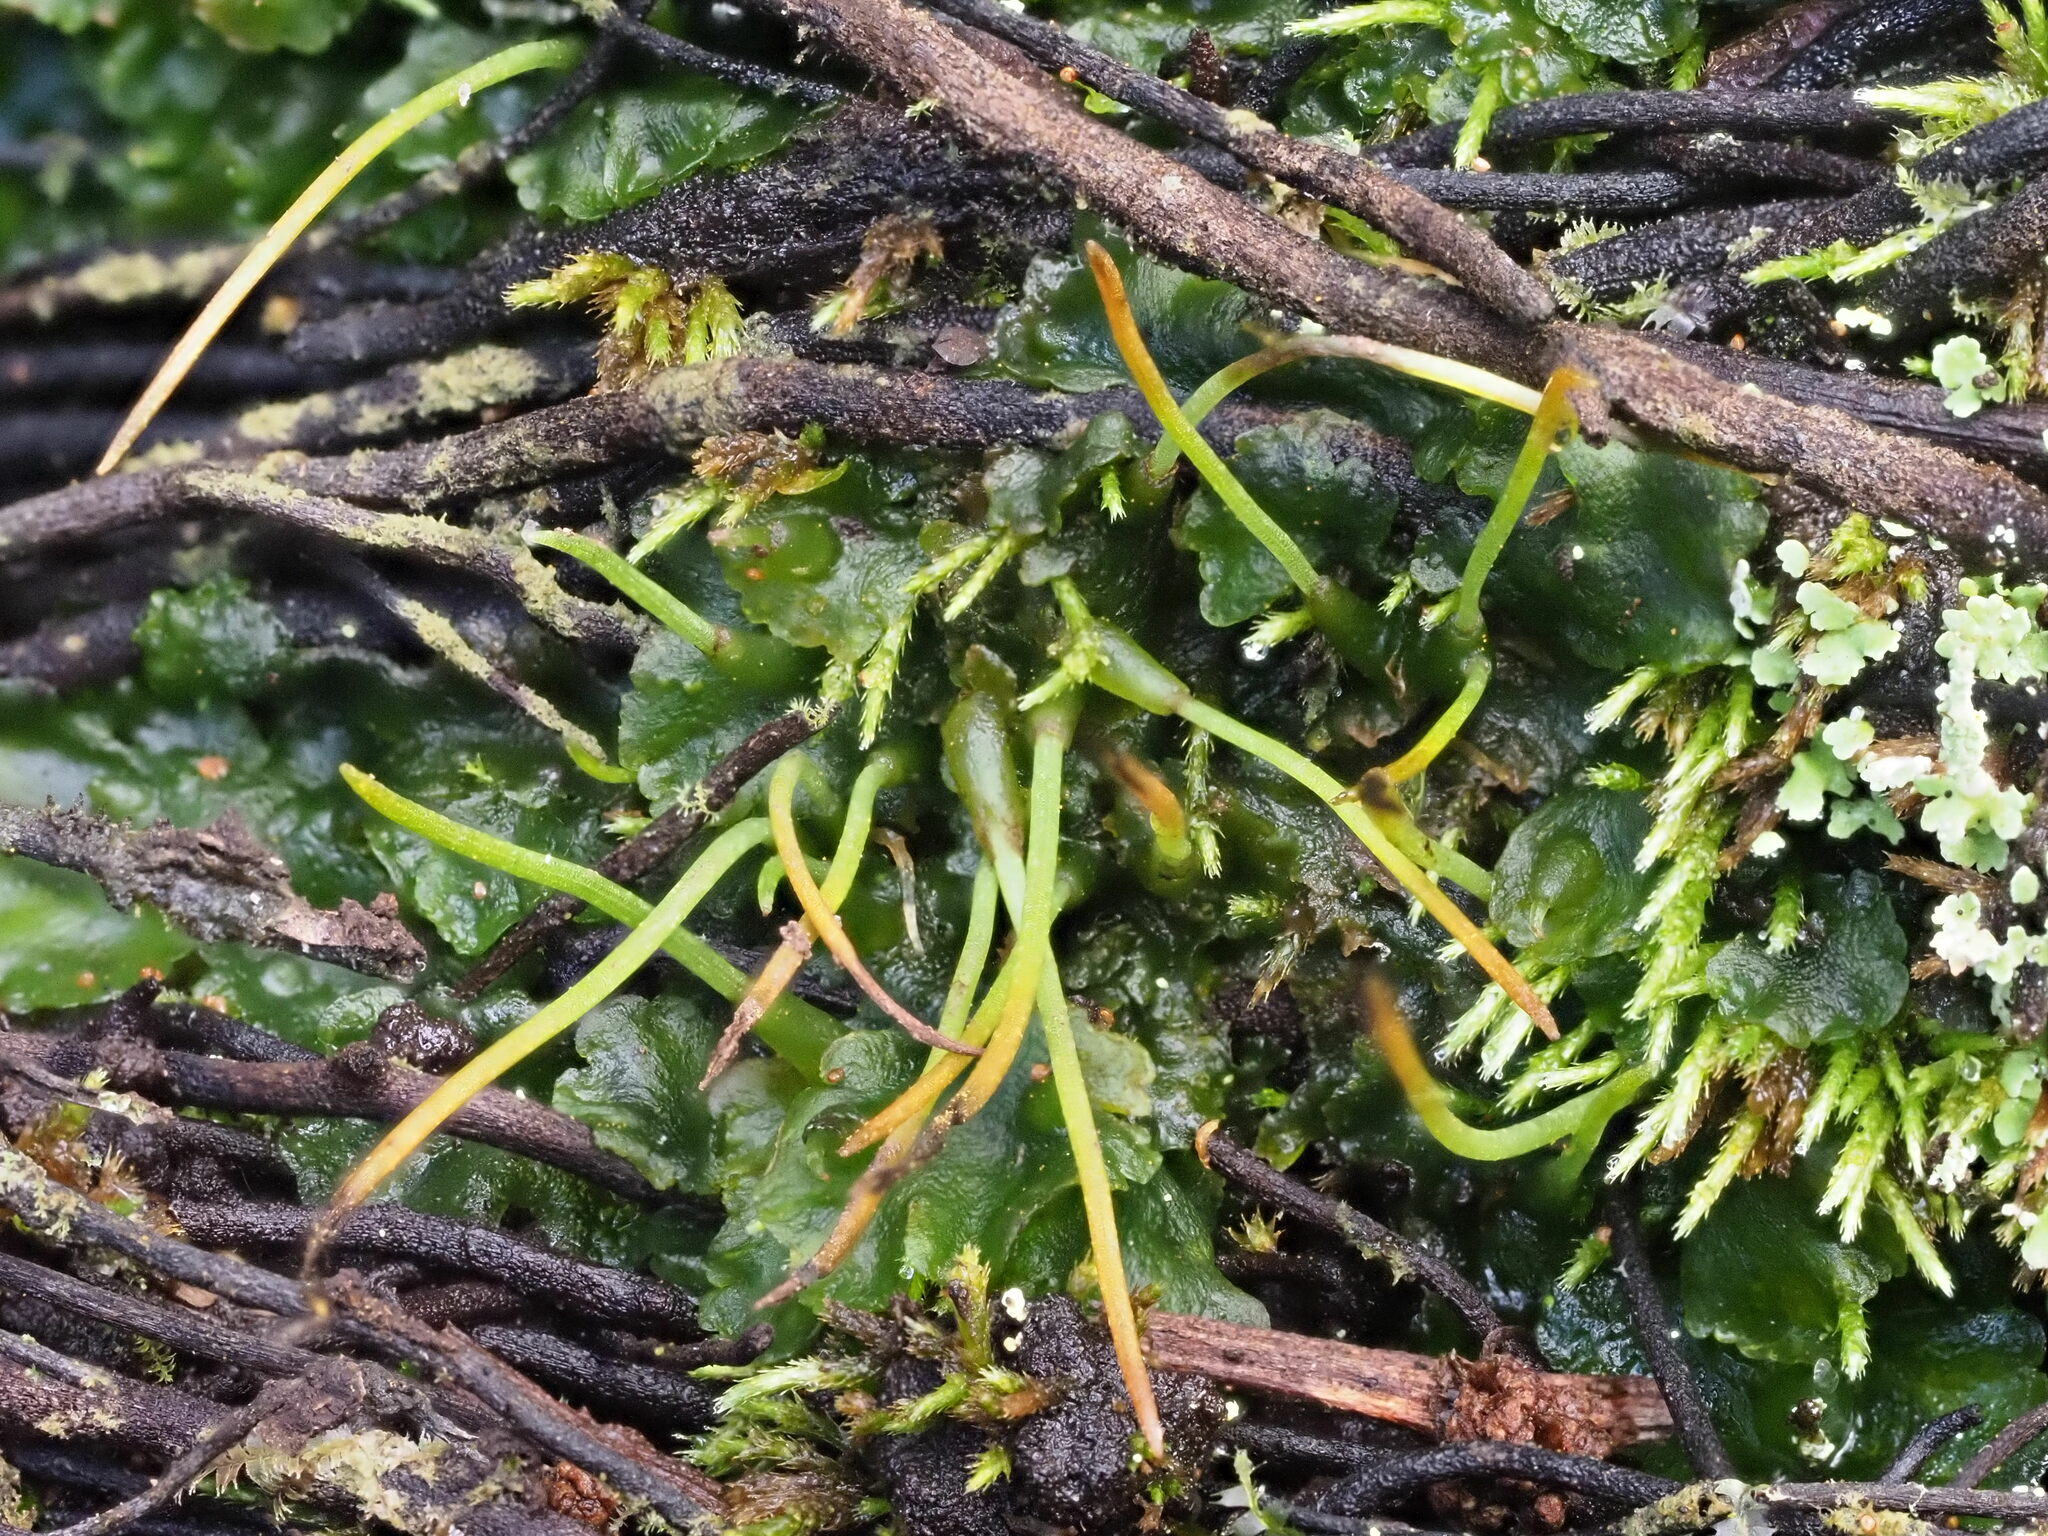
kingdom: Plantae
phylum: Anthocerotophyta
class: Anthocerotopsida
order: Notothyladales
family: Notothyladaceae
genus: Phaeoceros
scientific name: Phaeoceros carolinianus
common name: Carolina hornwort
